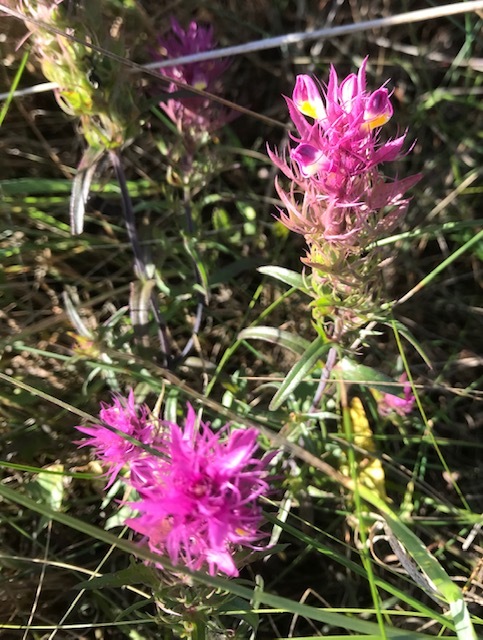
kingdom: Plantae
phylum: Tracheophyta
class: Magnoliopsida
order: Lamiales
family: Orobanchaceae
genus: Melampyrum
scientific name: Melampyrum arvense
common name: Field cow-wheat
